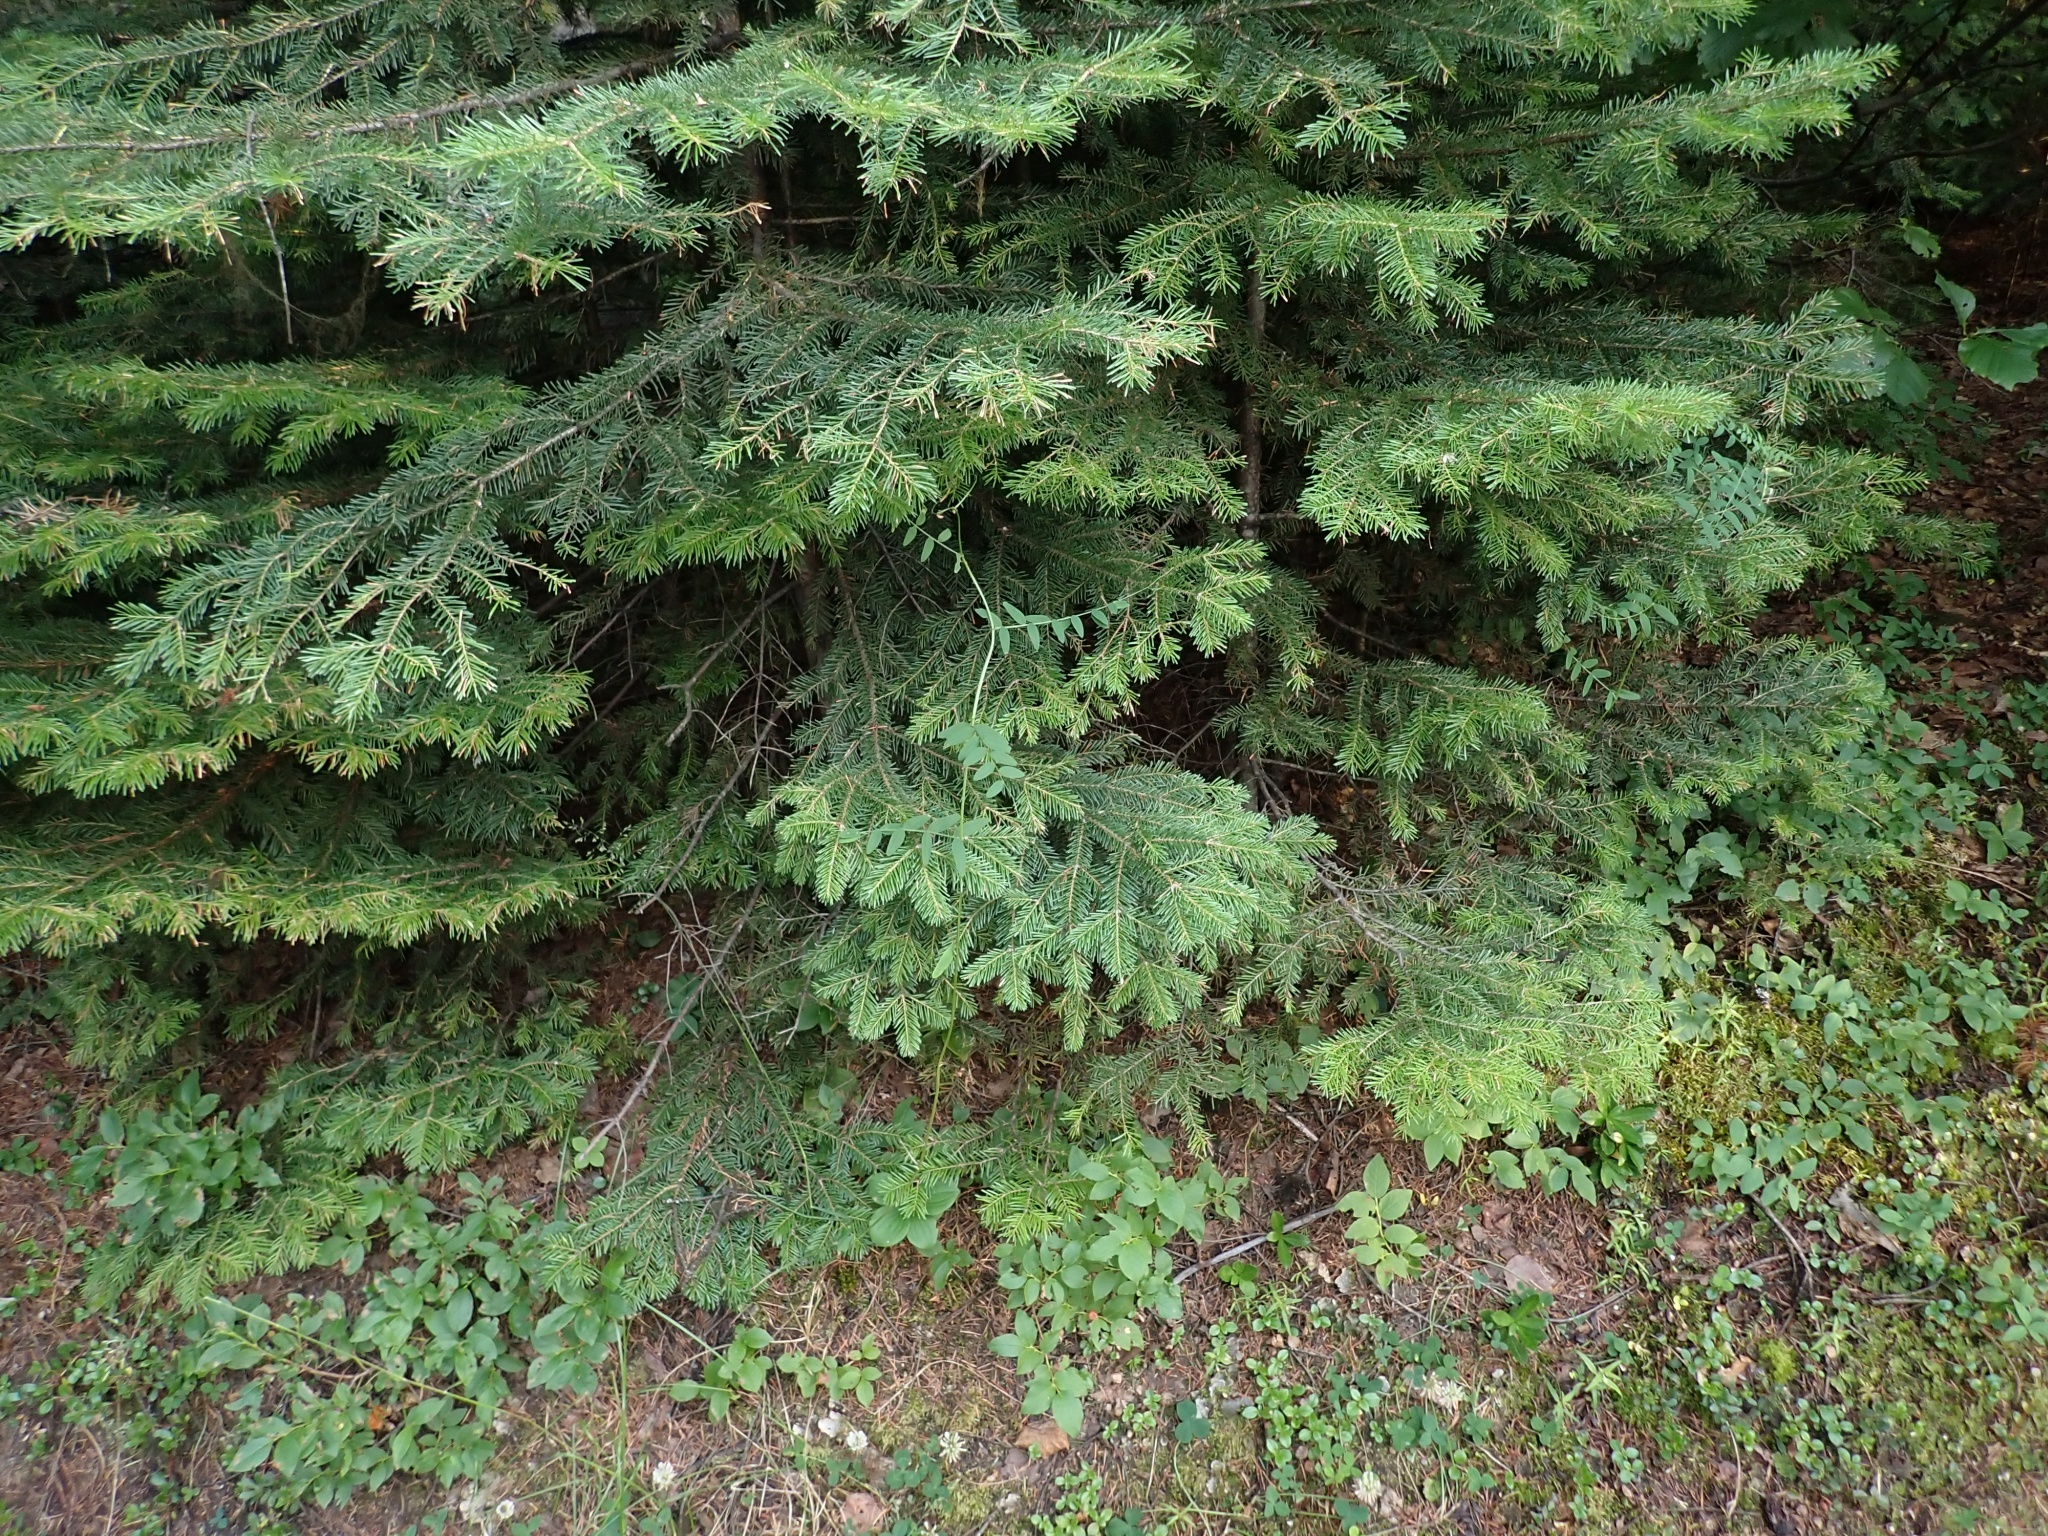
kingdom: Plantae
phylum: Tracheophyta
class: Magnoliopsida
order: Fabales
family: Fabaceae
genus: Vicia
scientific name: Vicia americana
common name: American vetch
